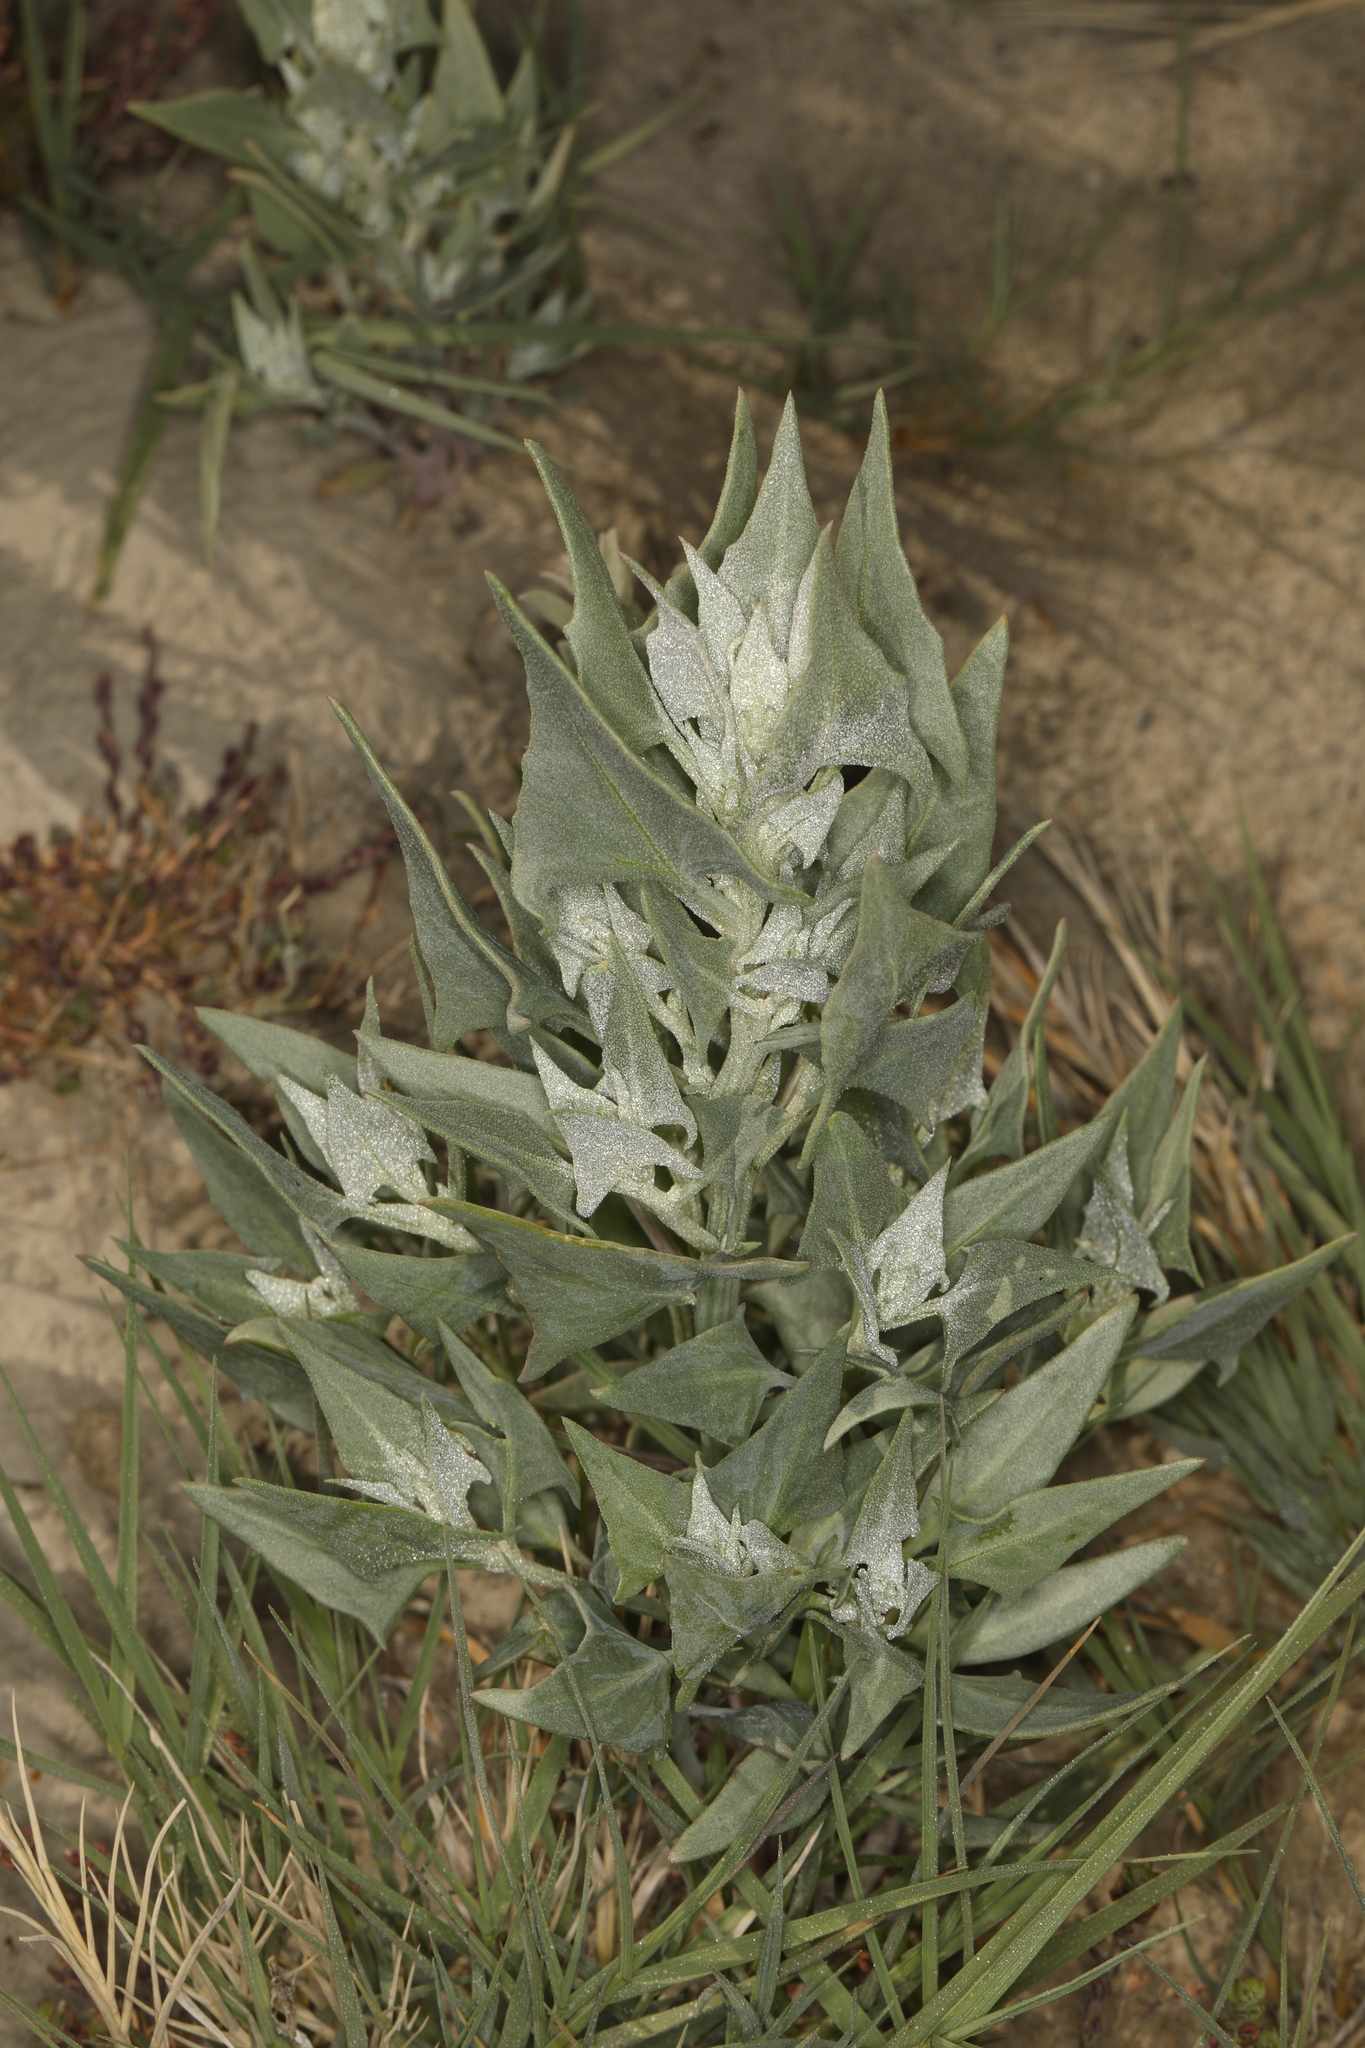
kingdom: Plantae
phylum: Tracheophyta
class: Magnoliopsida
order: Caryophyllales
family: Amaranthaceae
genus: Stutzia
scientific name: Stutzia covillei
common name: Coville's orach
